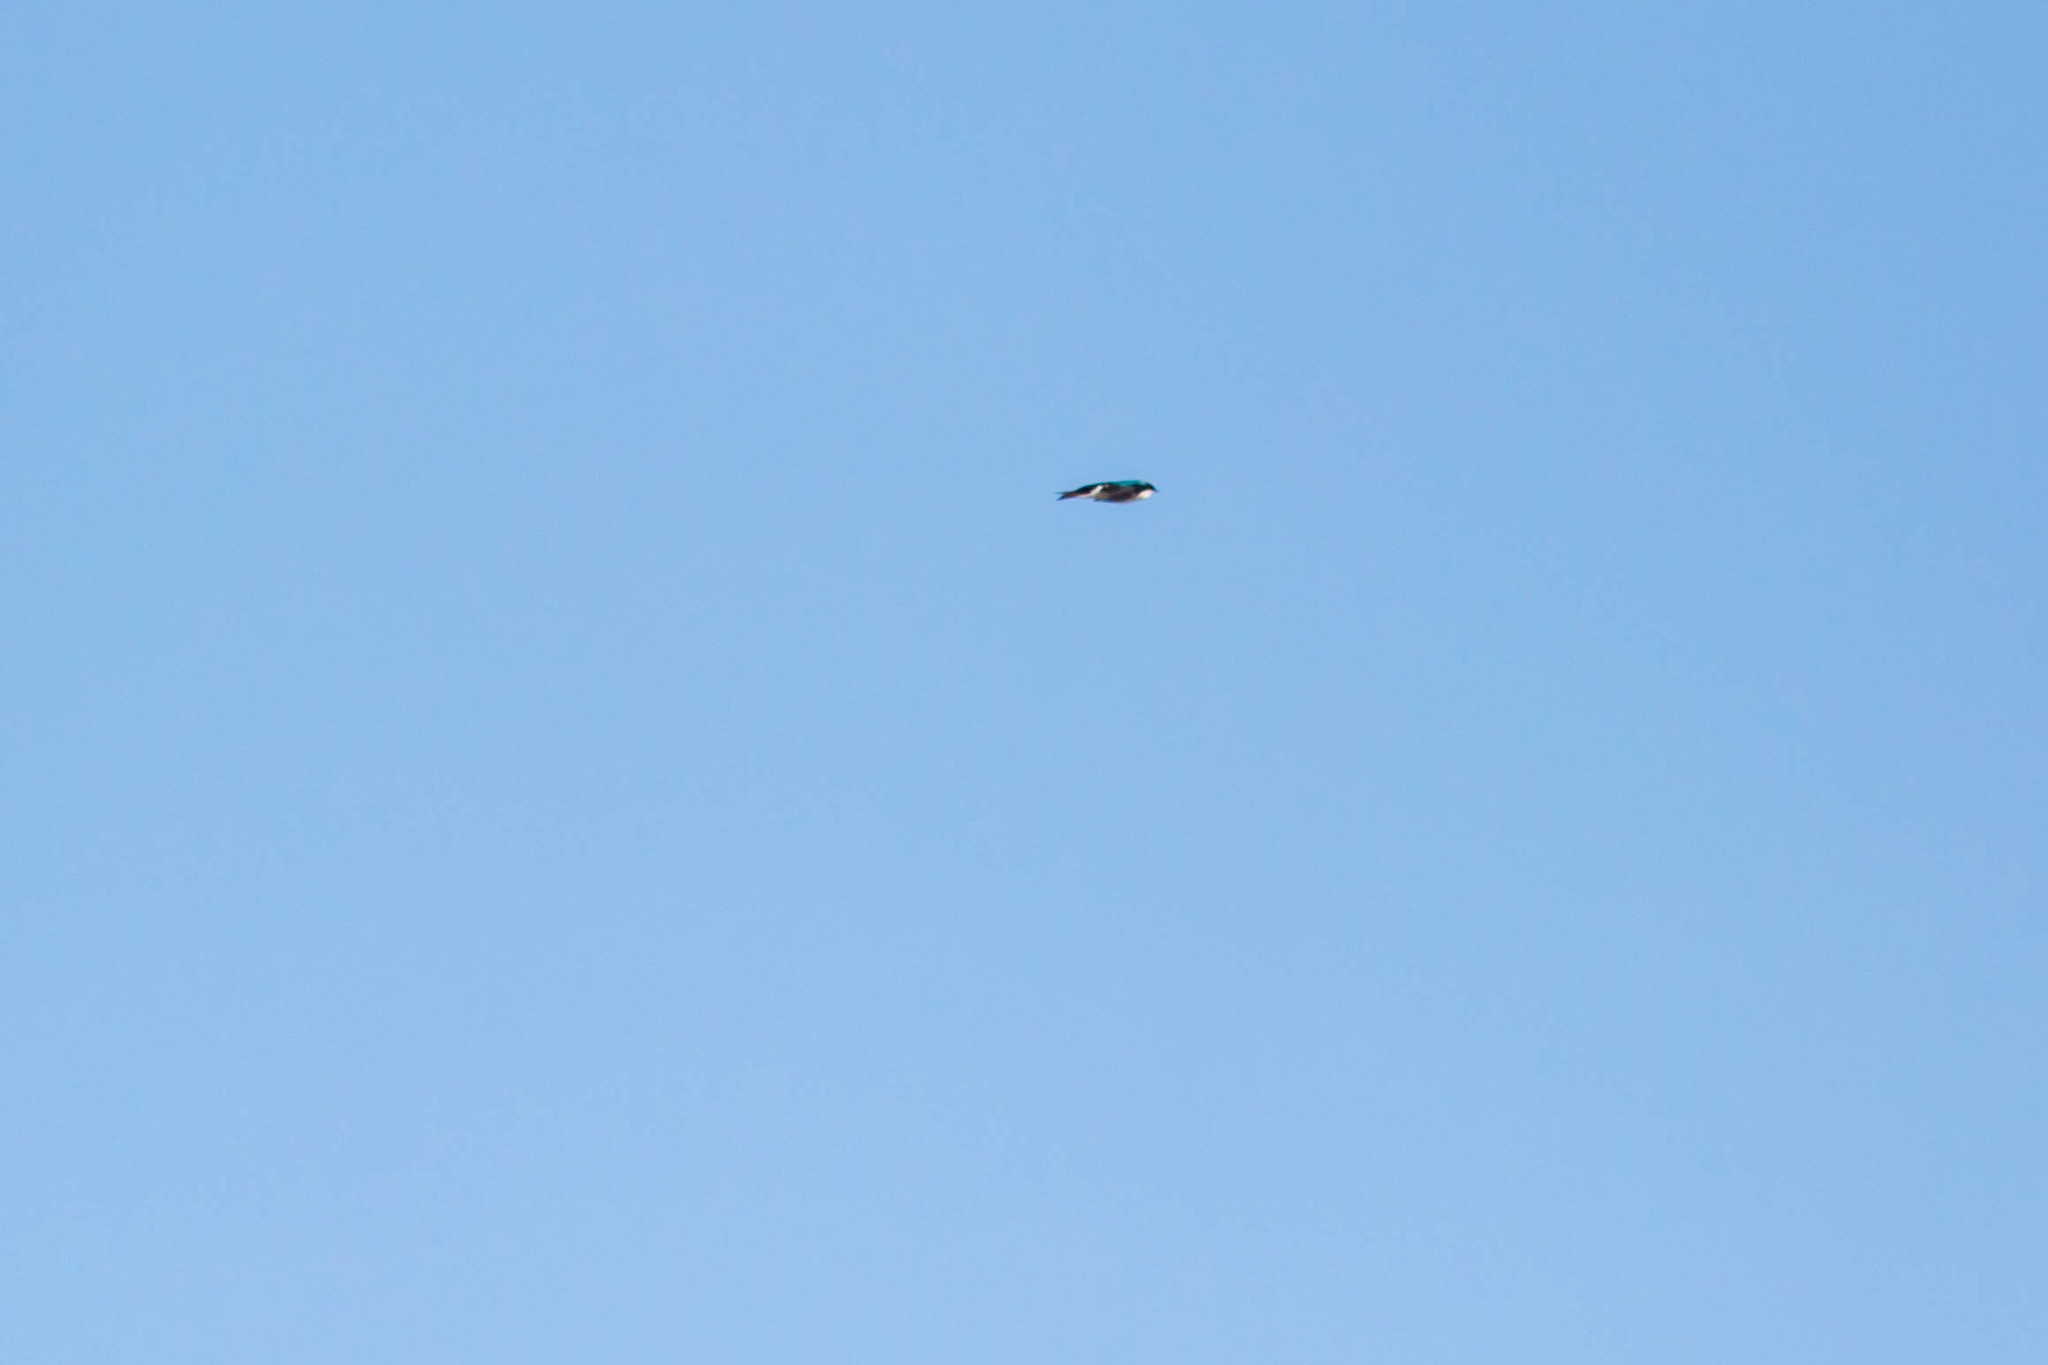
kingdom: Animalia
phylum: Chordata
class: Aves
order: Passeriformes
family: Hirundinidae
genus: Tachycineta
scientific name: Tachycineta bicolor
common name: Tree swallow
